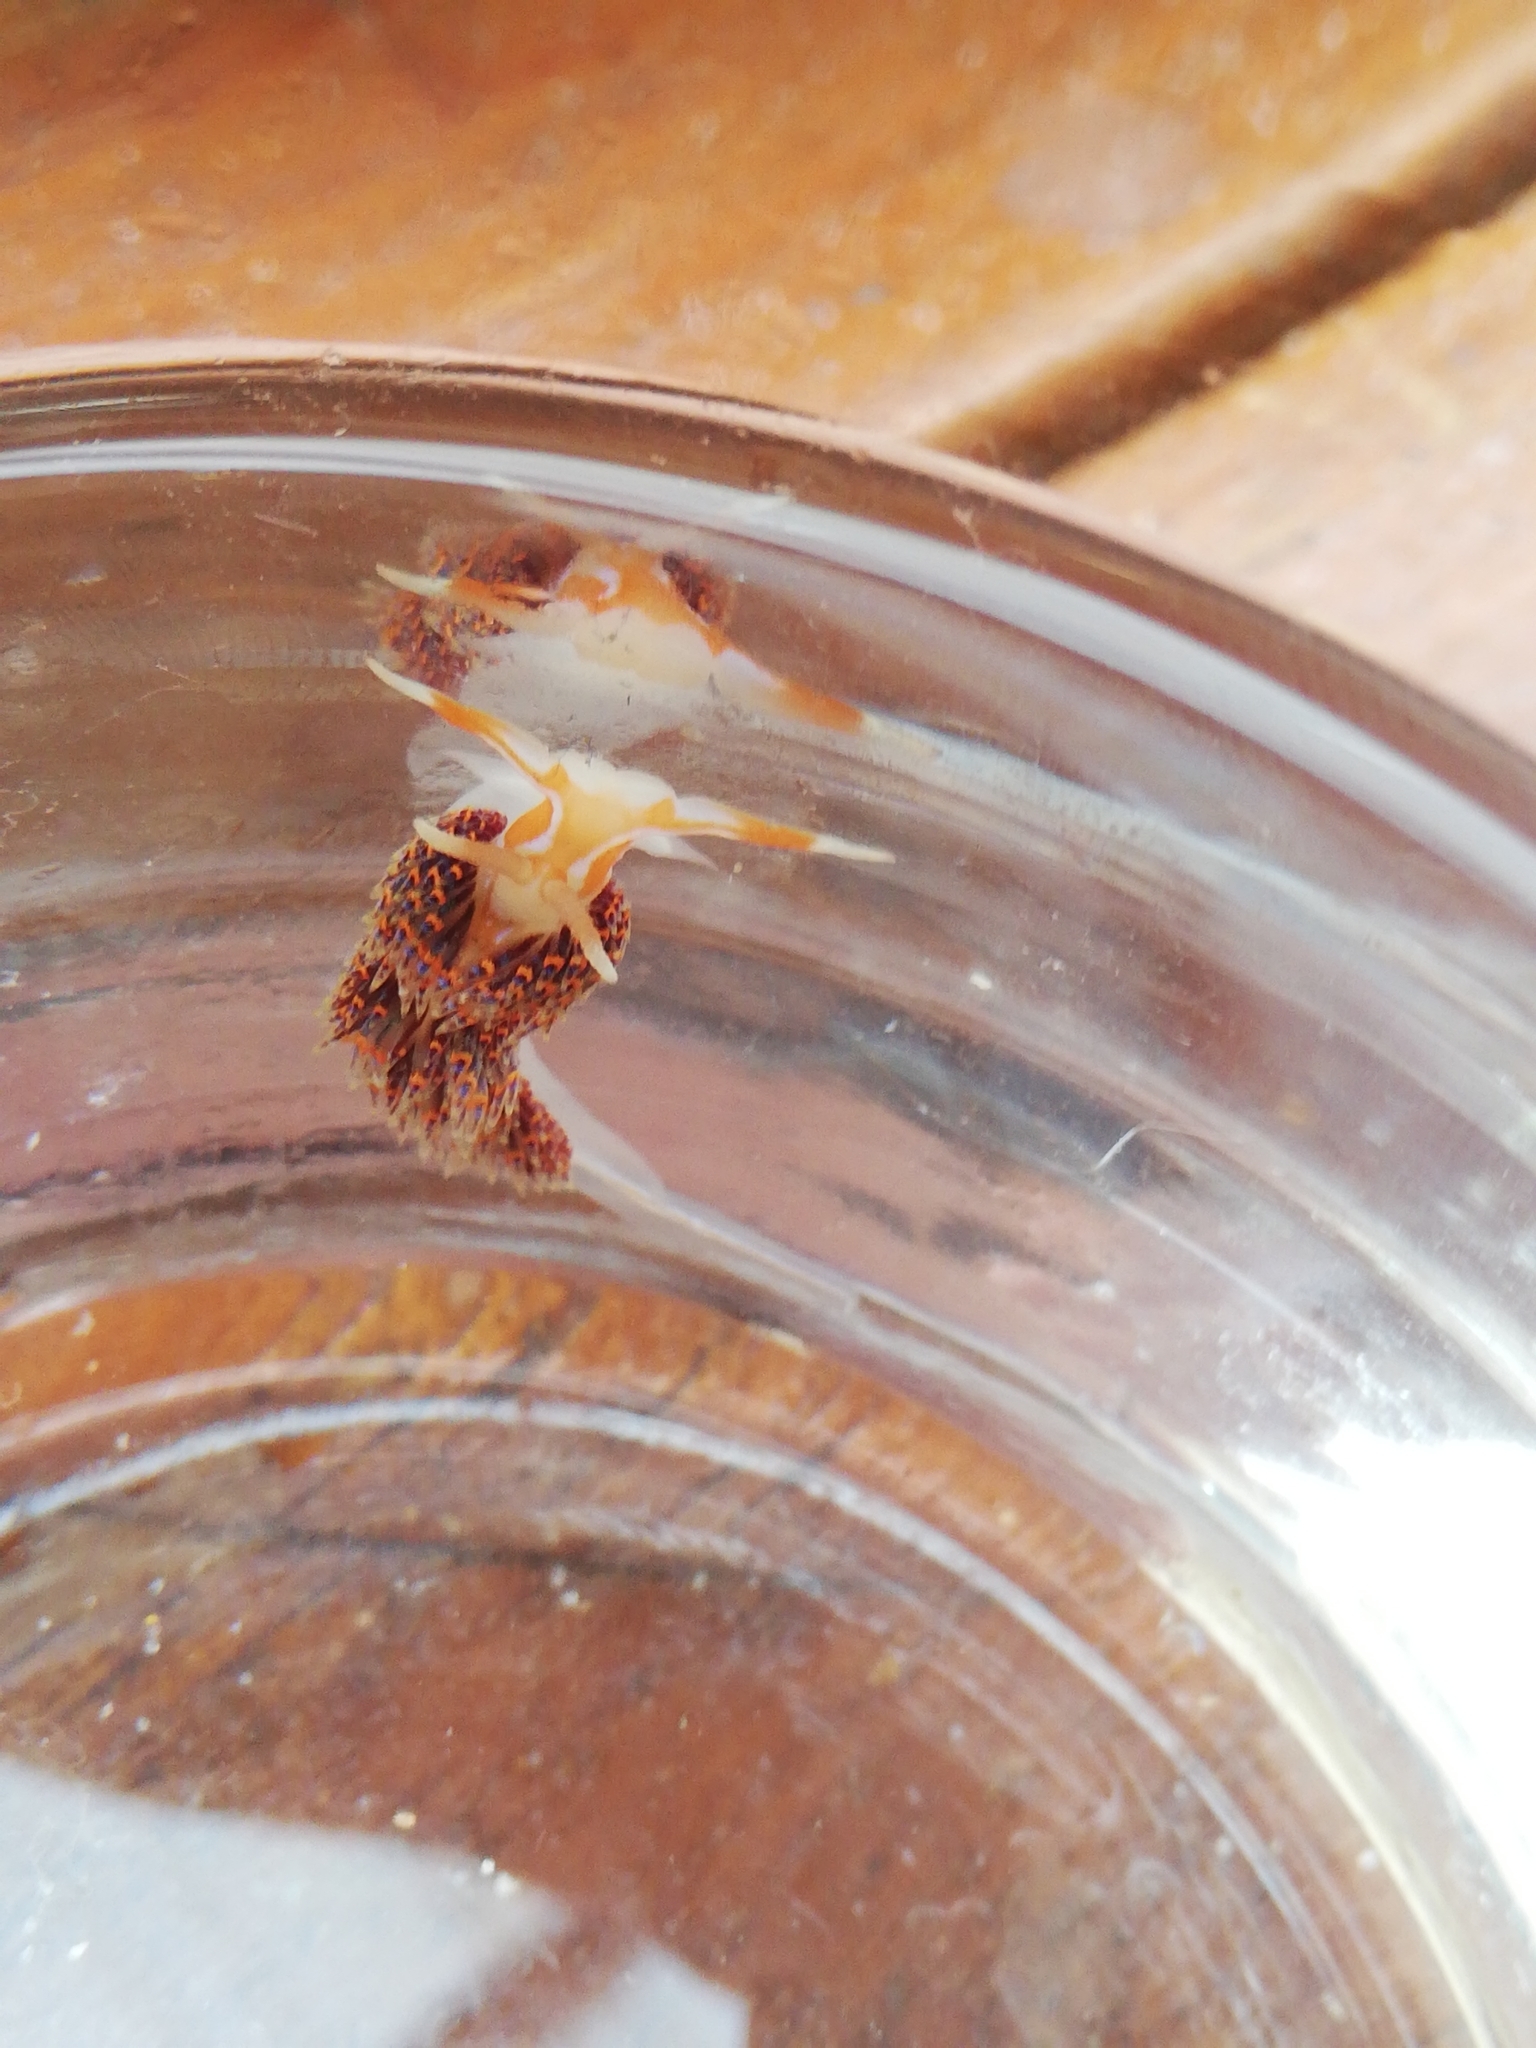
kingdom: Animalia
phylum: Mollusca
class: Gastropoda
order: Nudibranchia
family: Myrrhinidae
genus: Godiva
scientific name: Godiva quadricolor
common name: Four-colour nudibranch
